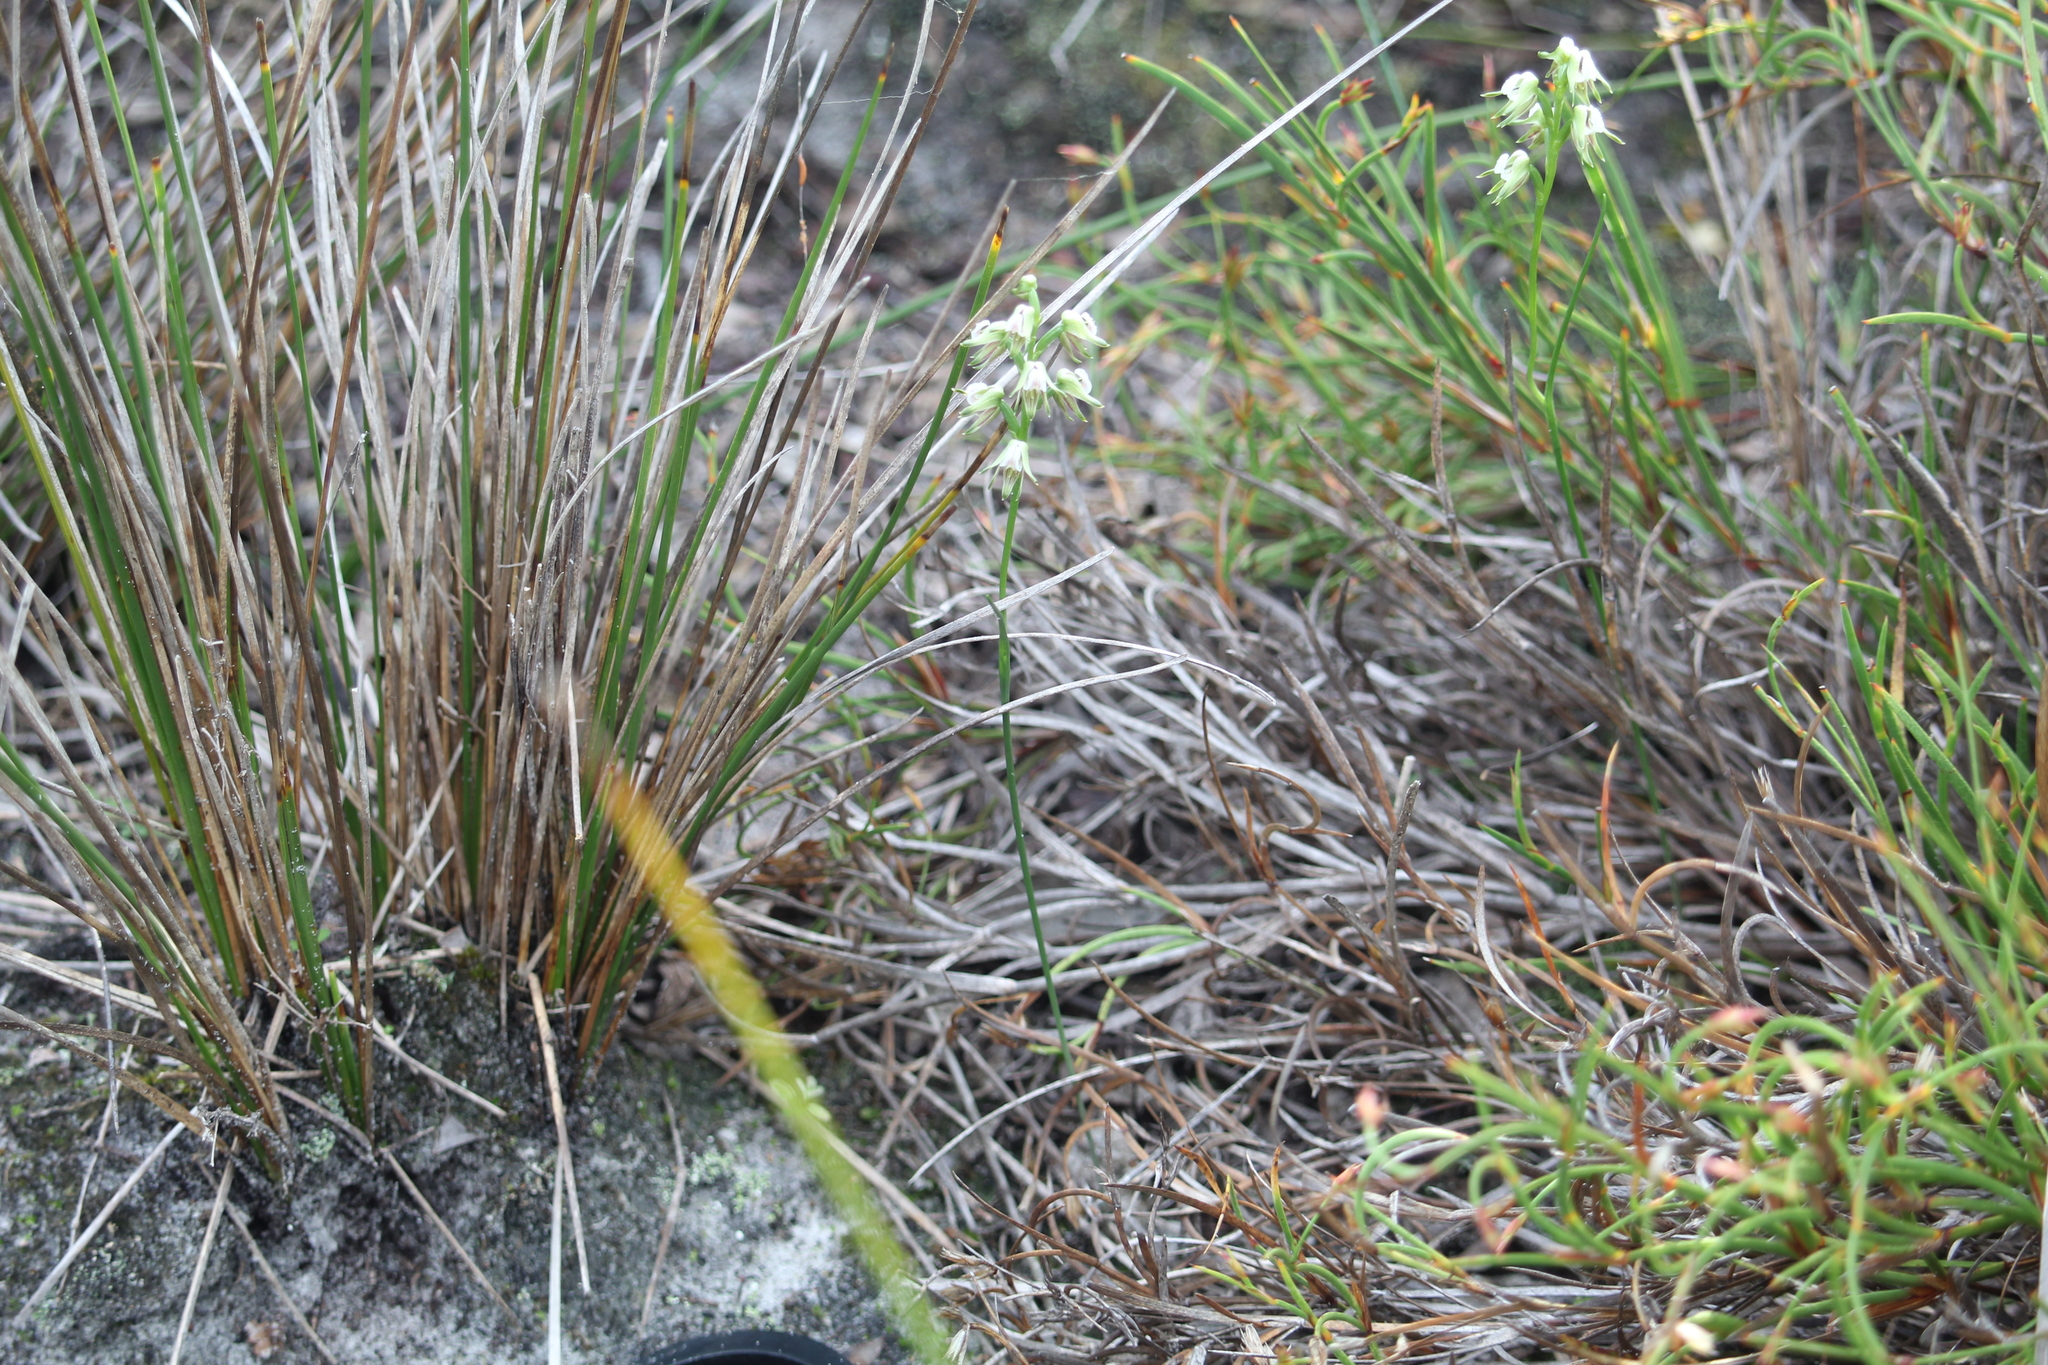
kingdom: Plantae
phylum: Tracheophyta
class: Liliopsida
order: Asparagales
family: Orchidaceae
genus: Prasophyllum
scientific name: Prasophyllum parvifolium
